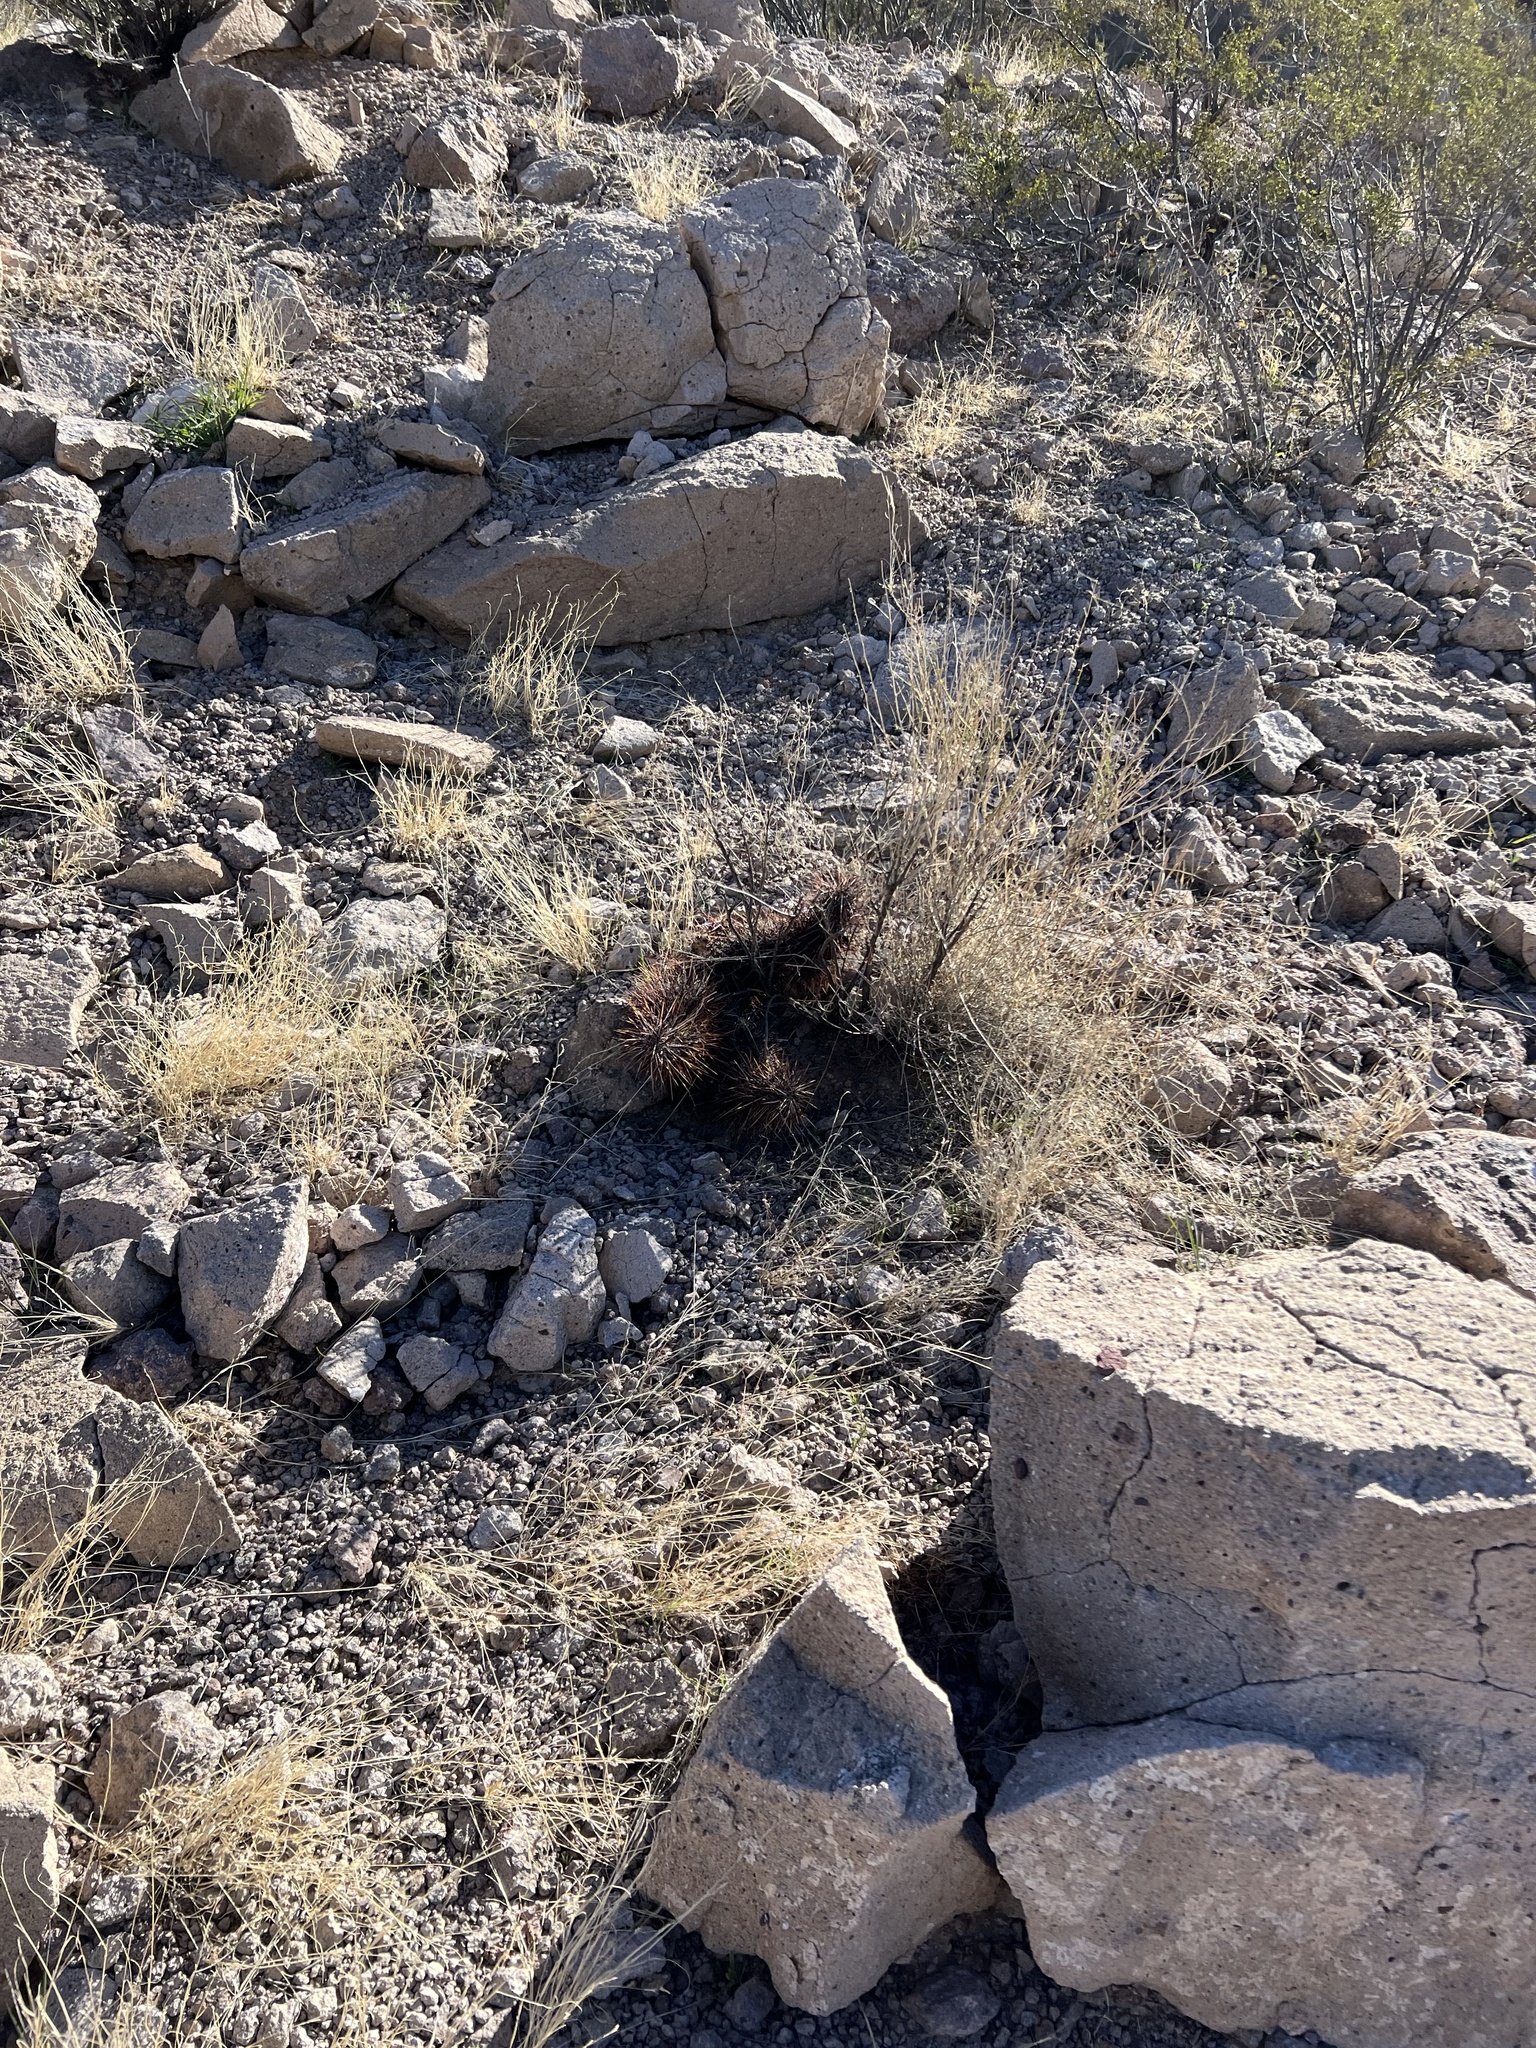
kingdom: Plantae
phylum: Tracheophyta
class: Magnoliopsida
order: Caryophyllales
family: Cactaceae
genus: Echinocereus
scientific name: Echinocereus engelmannii
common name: Engelmann's hedgehog cactus
